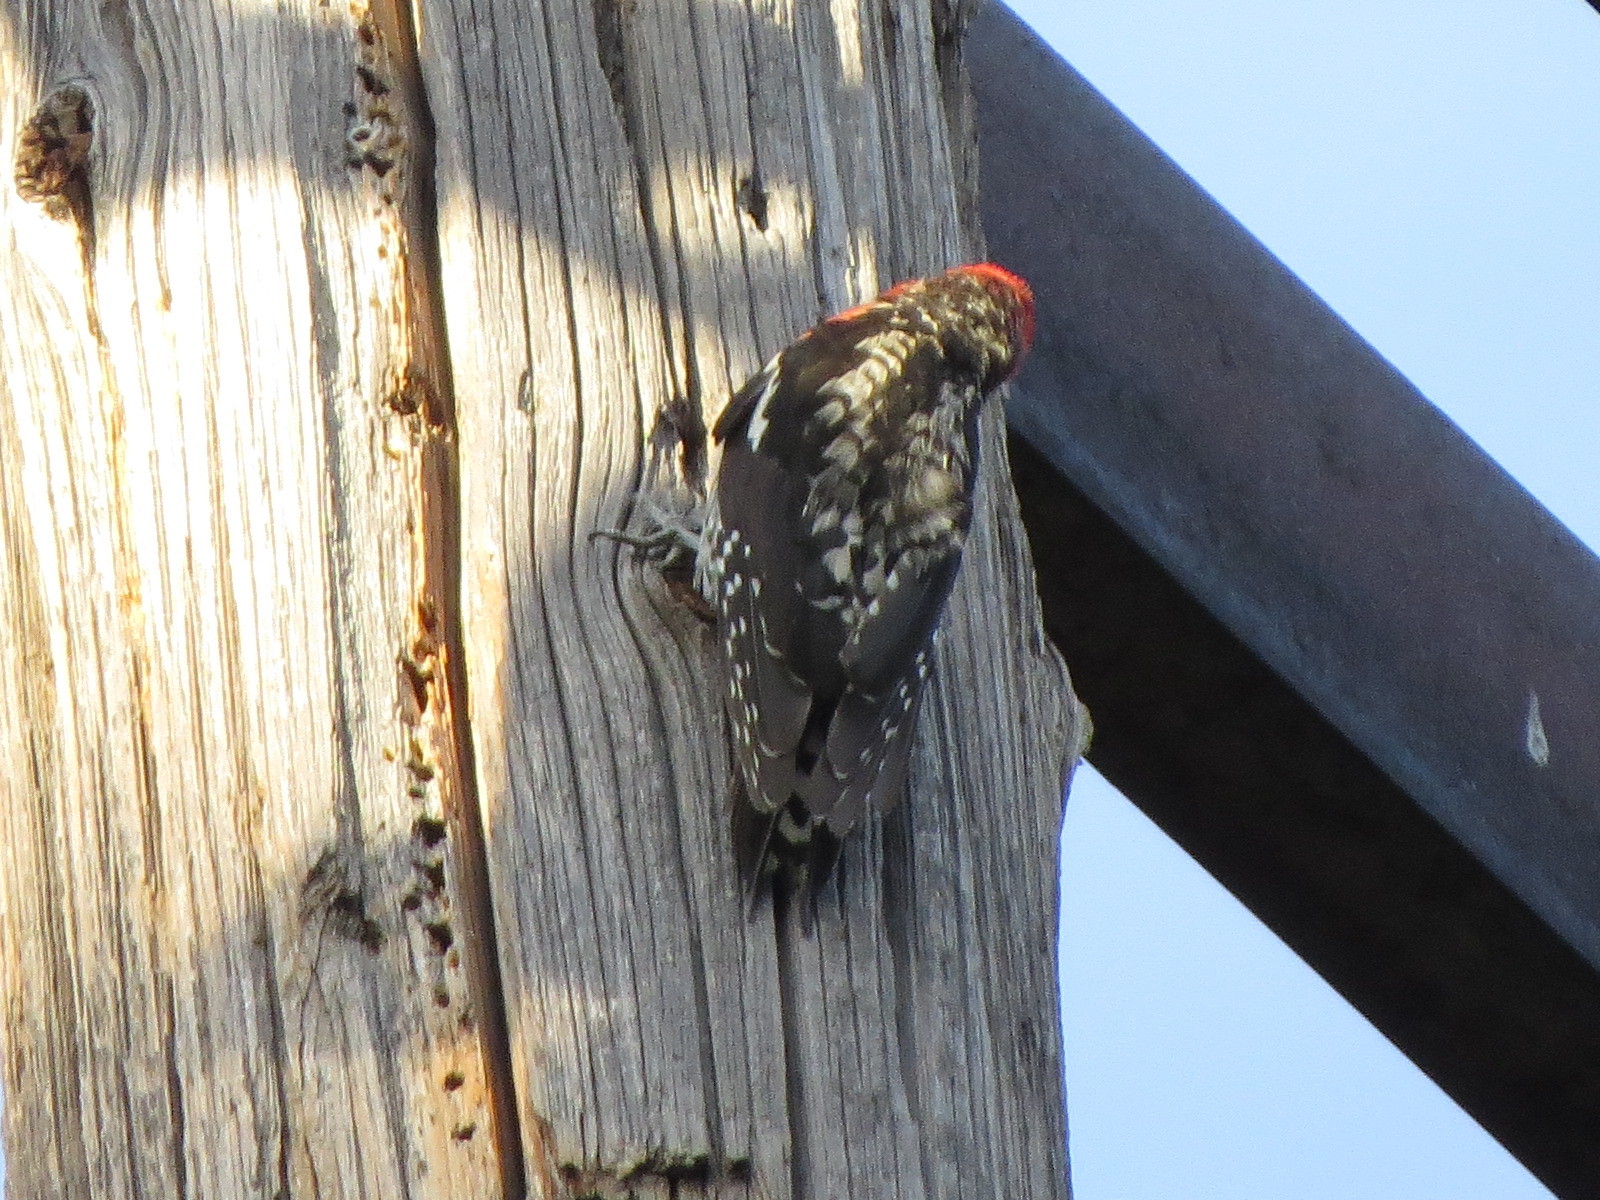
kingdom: Animalia
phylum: Chordata
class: Aves
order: Piciformes
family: Picidae
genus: Sphyrapicus
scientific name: Sphyrapicus ruber
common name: Red-breasted sapsucker
